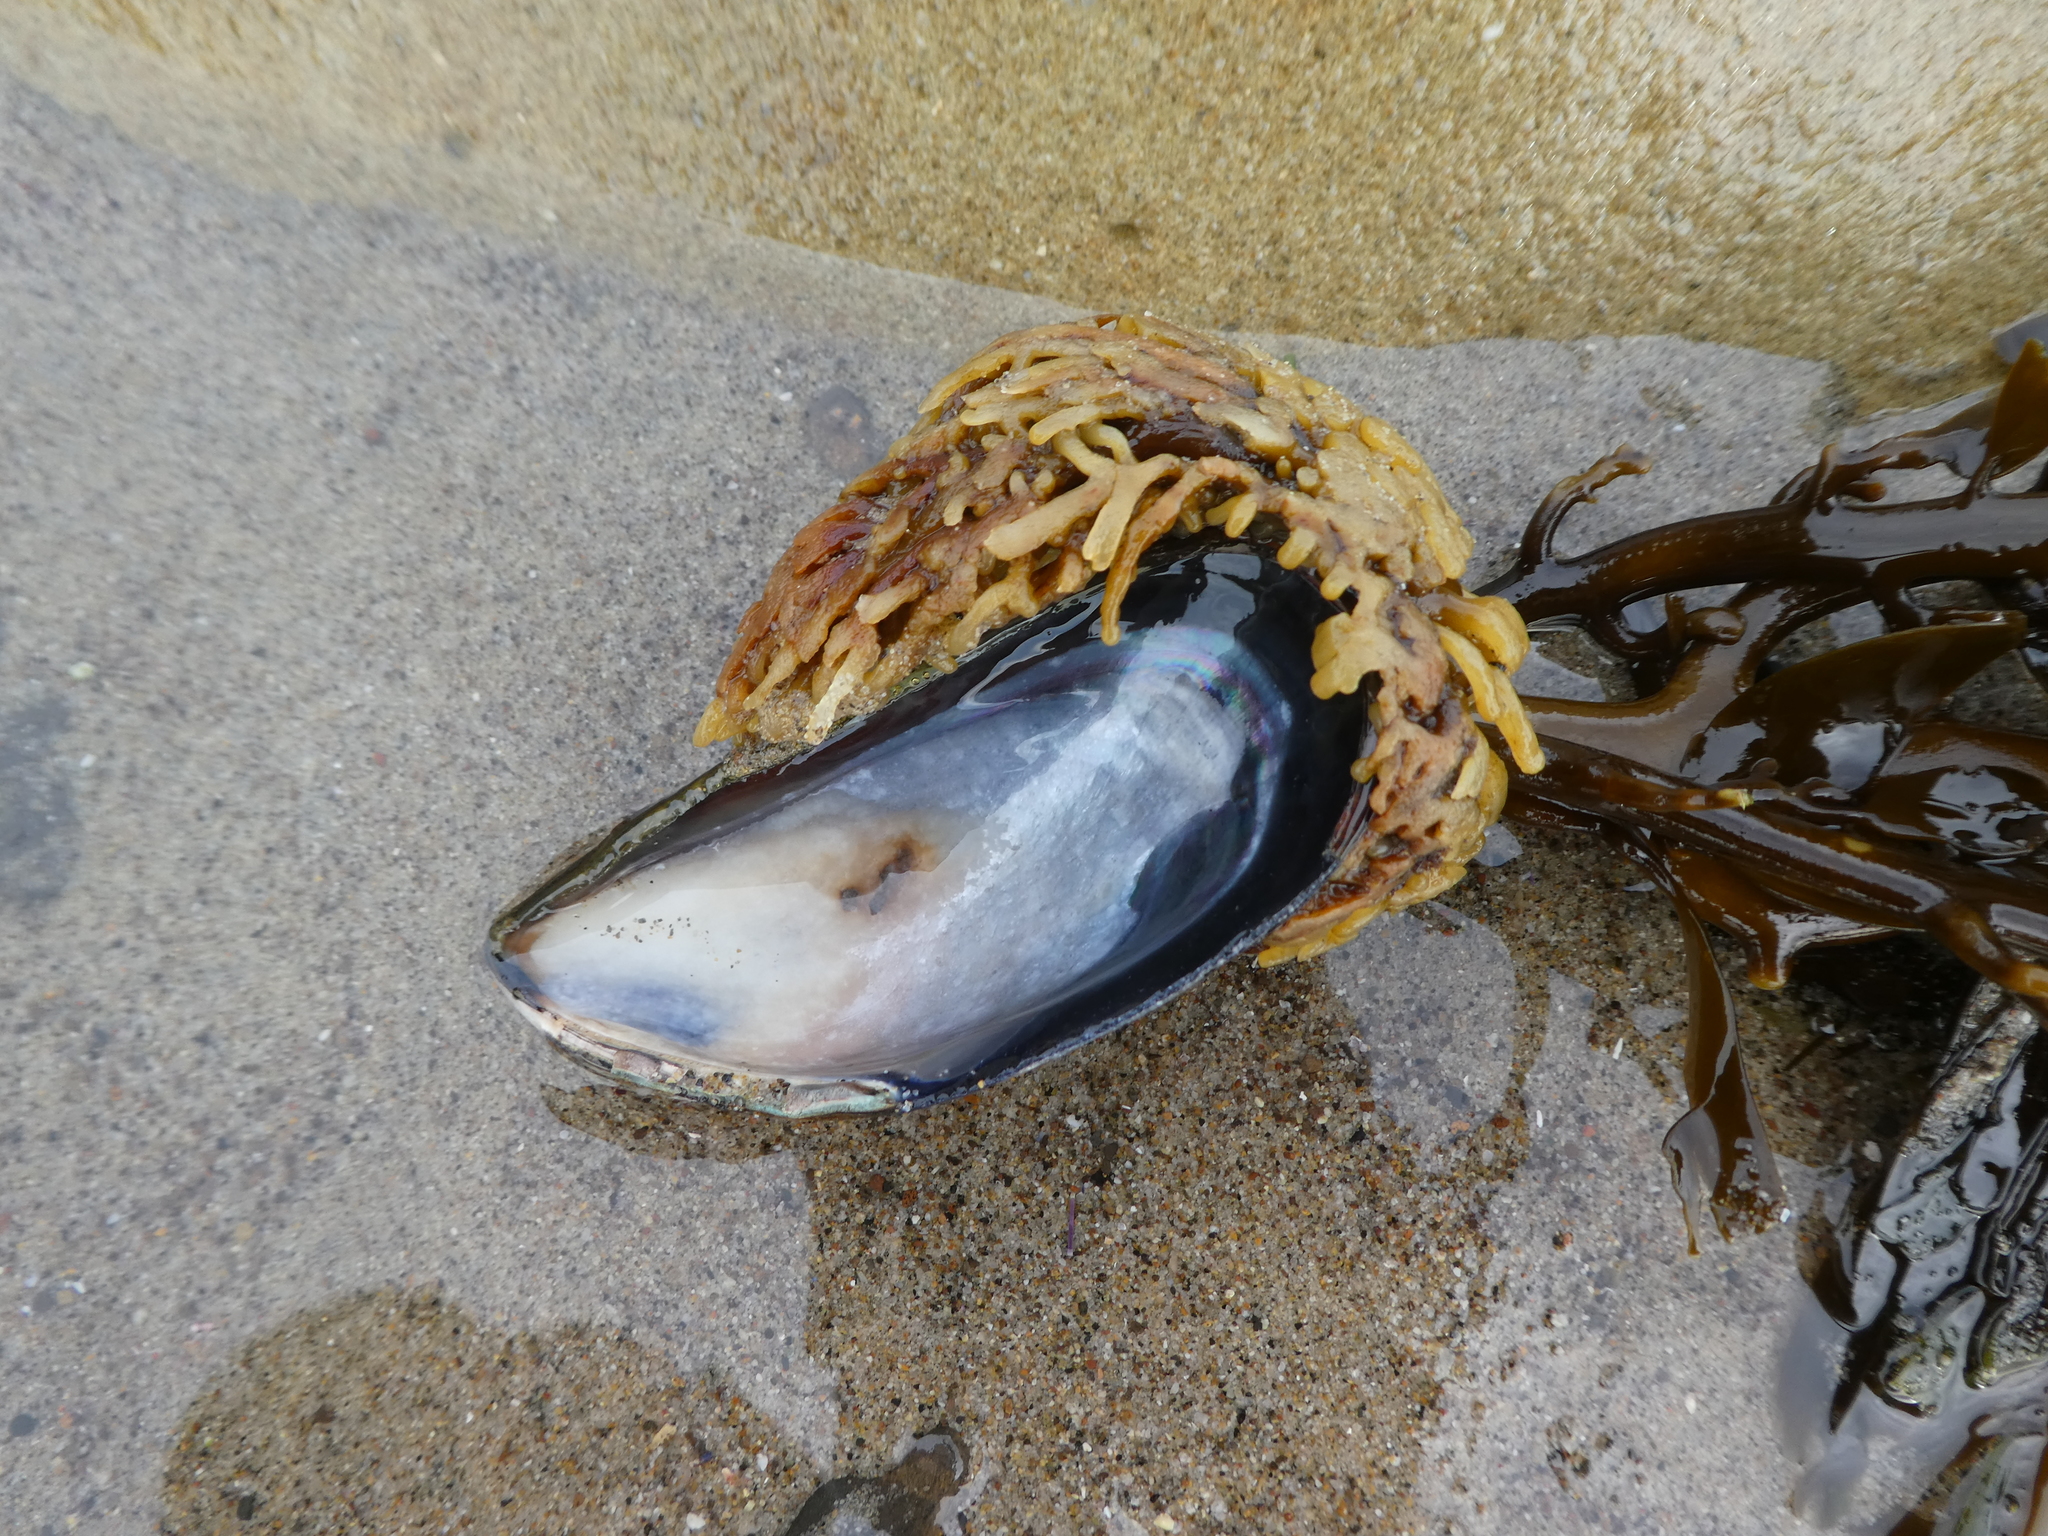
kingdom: Chromista
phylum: Ochrophyta
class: Phaeophyceae
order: Laminariales
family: Lessoniaceae
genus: Egregia
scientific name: Egregia menziesii
